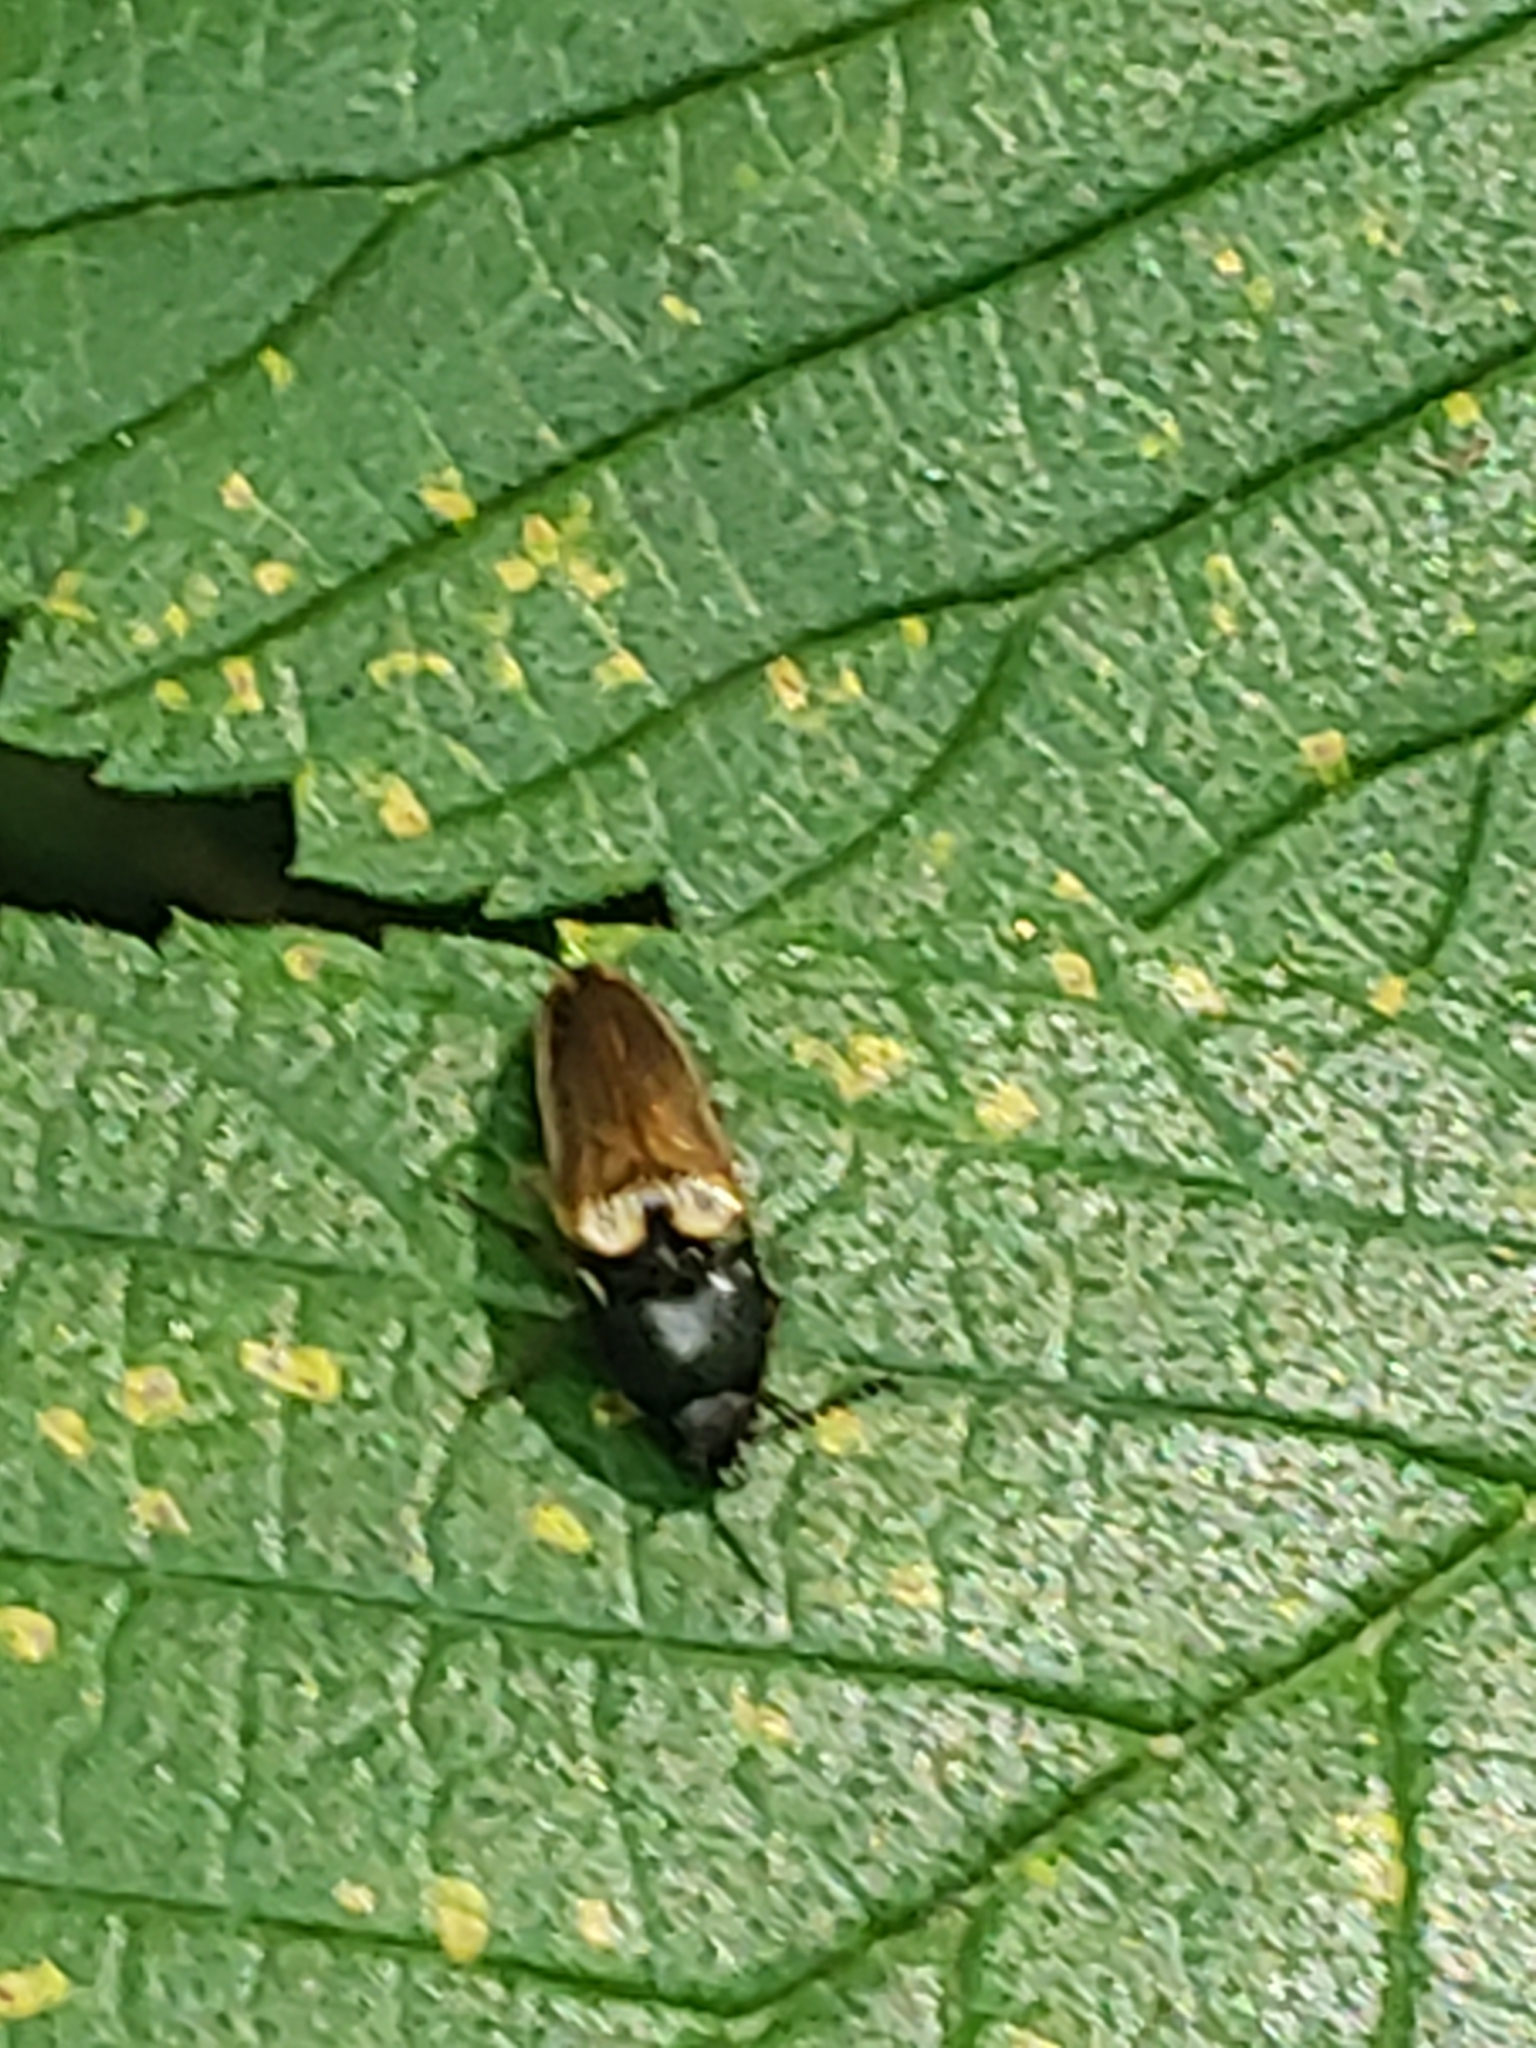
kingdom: Animalia
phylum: Arthropoda
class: Insecta
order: Coleoptera
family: Elateridae
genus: Ampedus
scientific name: Ampedus nigricollis
